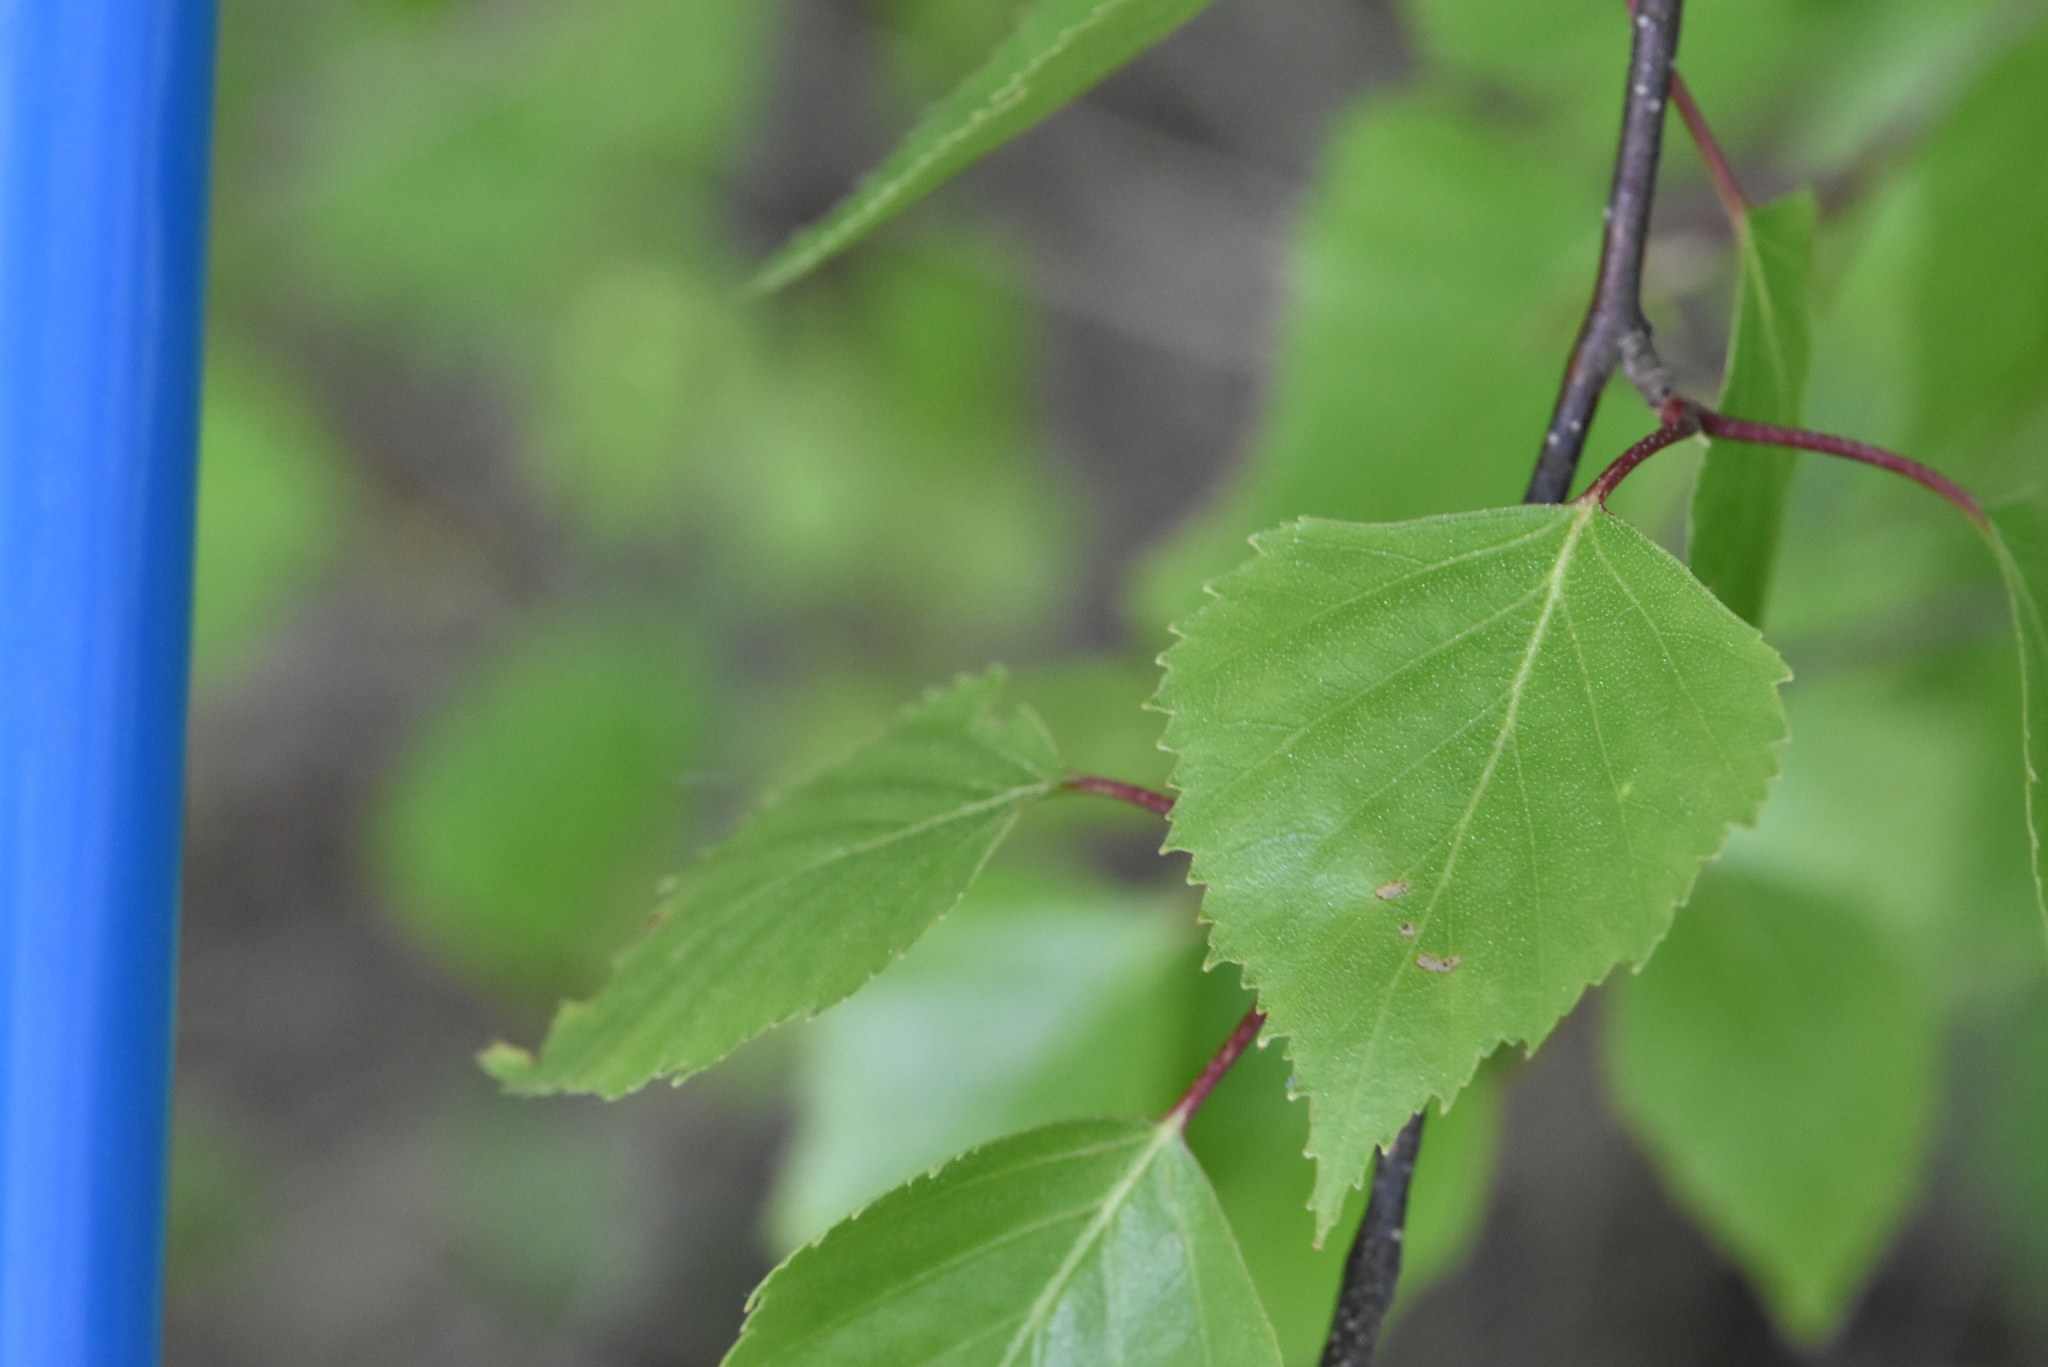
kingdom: Plantae
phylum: Tracheophyta
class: Magnoliopsida
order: Fagales
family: Betulaceae
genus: Betula
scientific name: Betula pendula
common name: Silver birch
